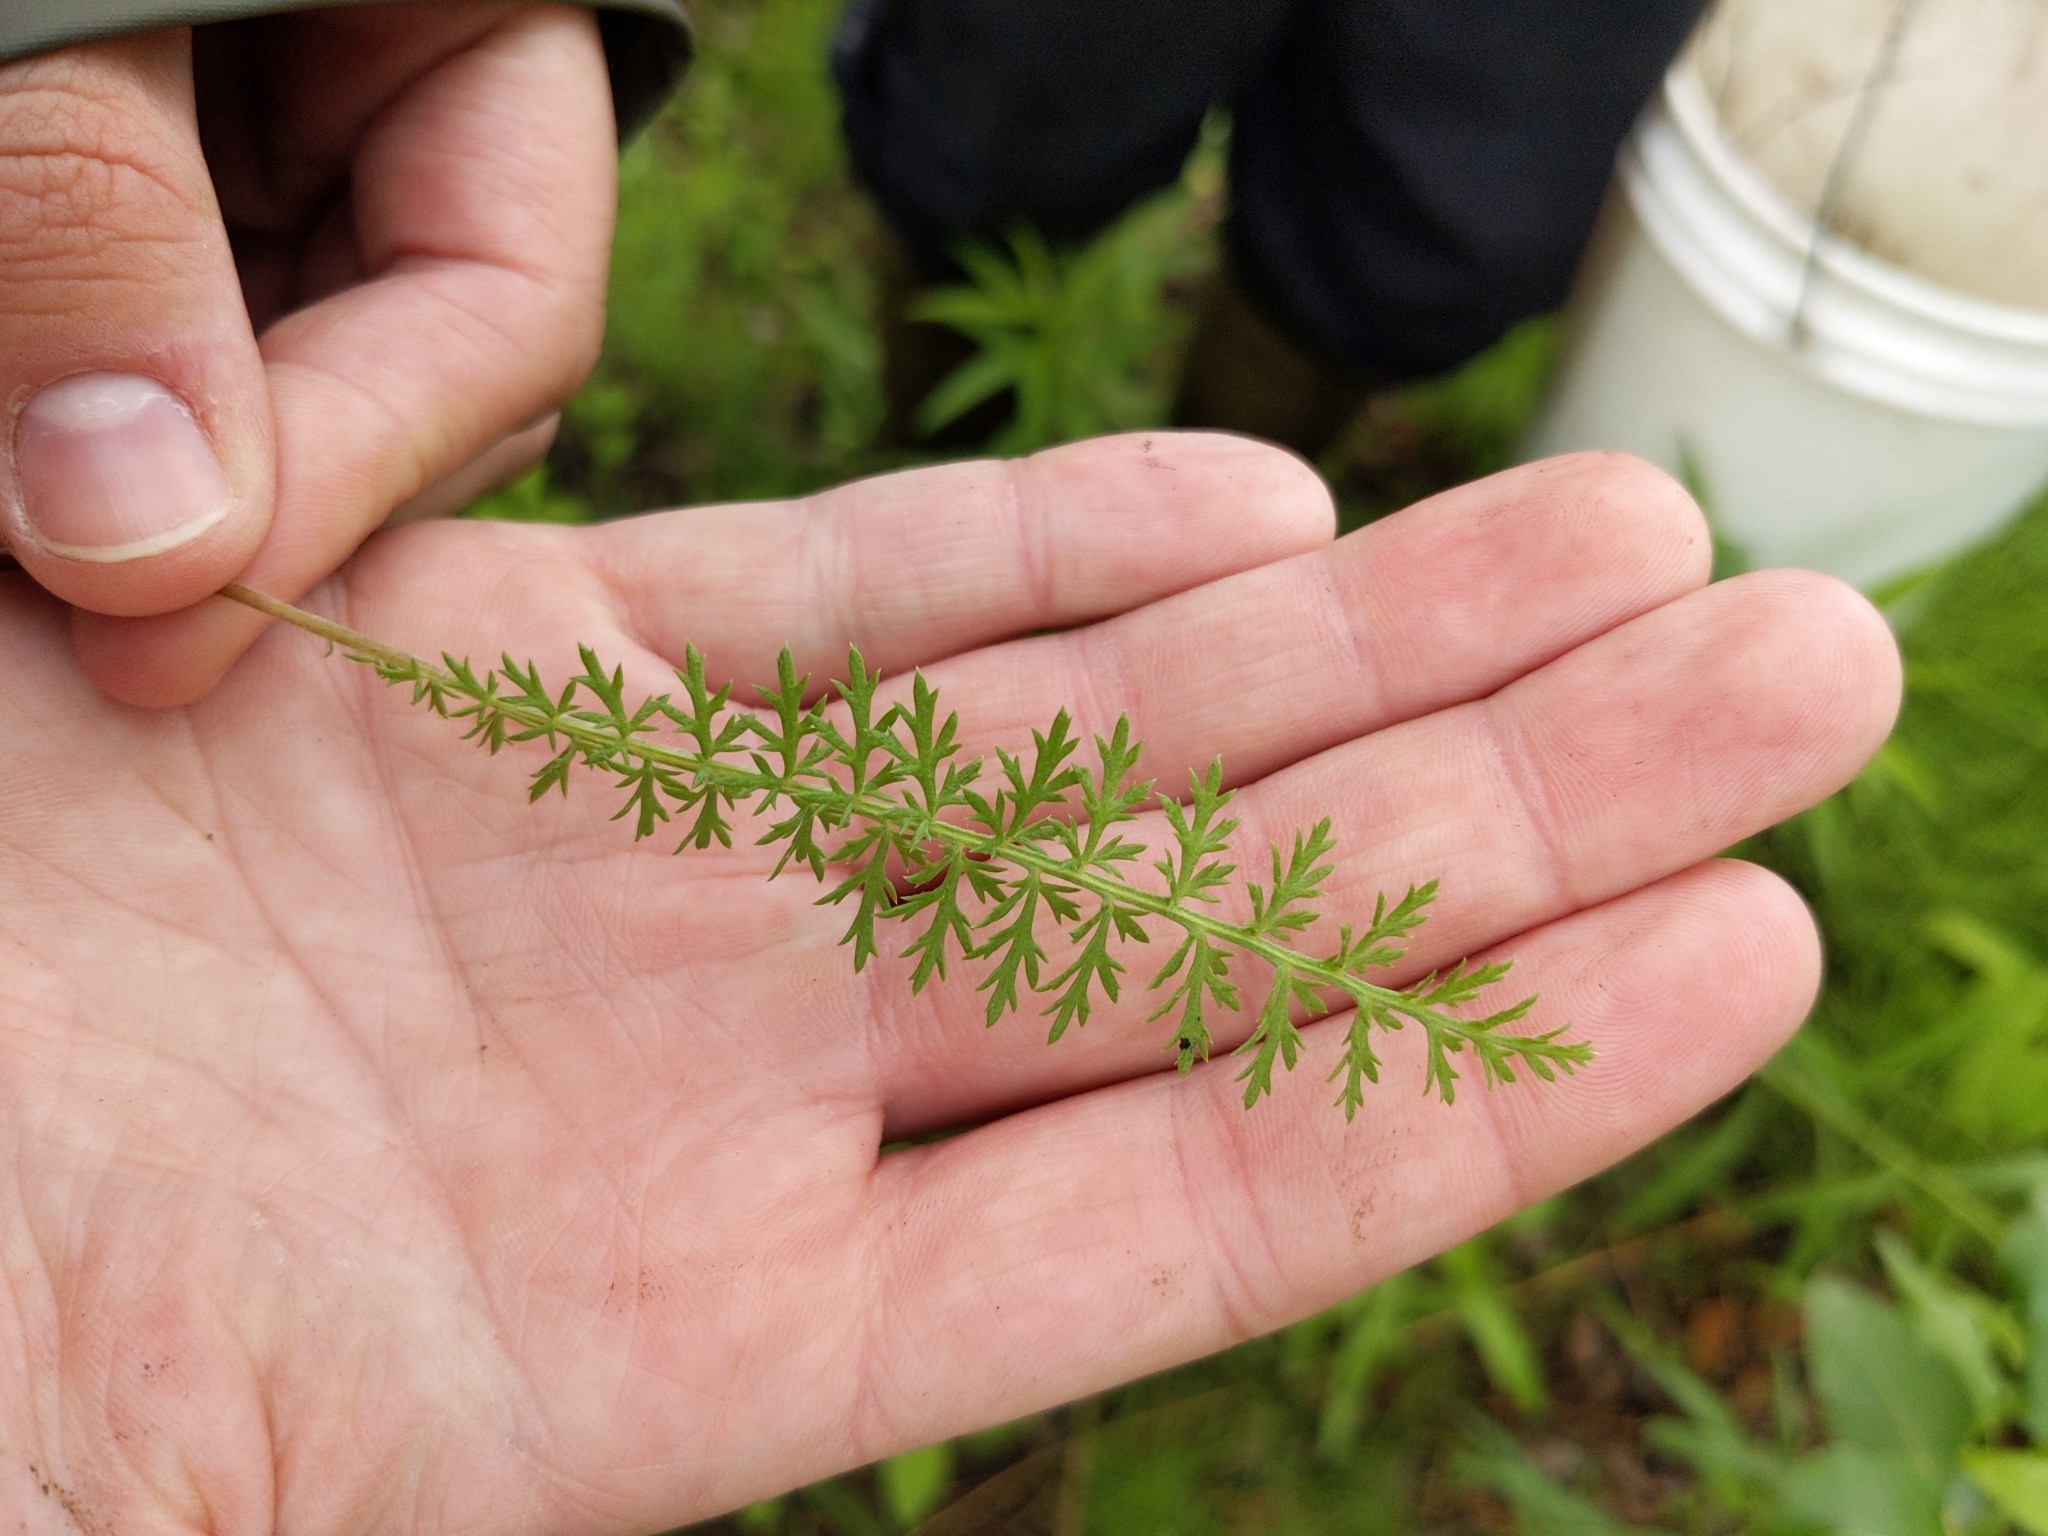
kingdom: Plantae
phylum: Tracheophyta
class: Magnoliopsida
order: Asterales
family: Asteraceae
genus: Achillea
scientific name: Achillea millefolium
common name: Yarrow
